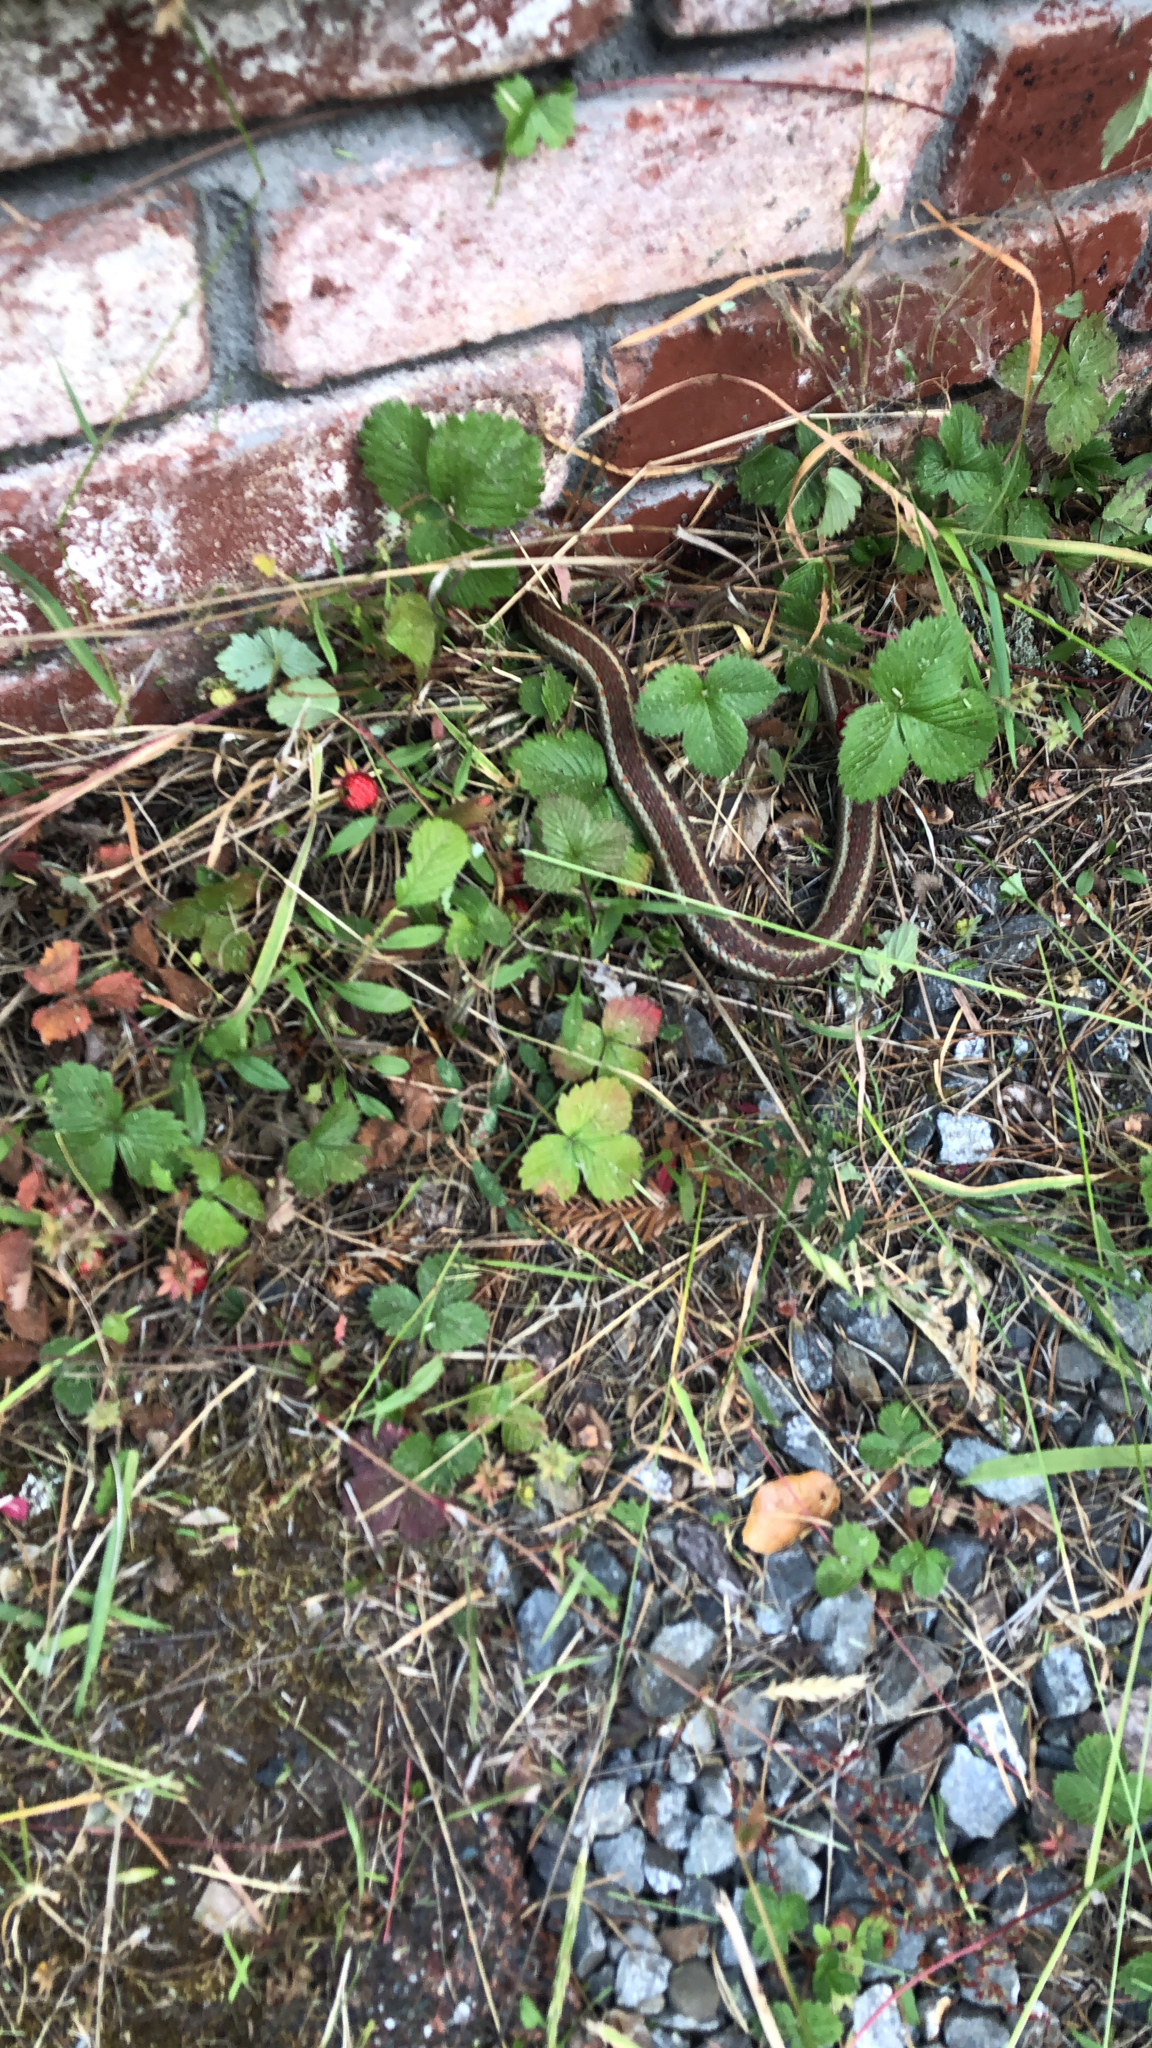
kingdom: Animalia
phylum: Chordata
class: Squamata
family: Colubridae
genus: Thamnophis
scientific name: Thamnophis elegans
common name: Western terrestrial garter snake
